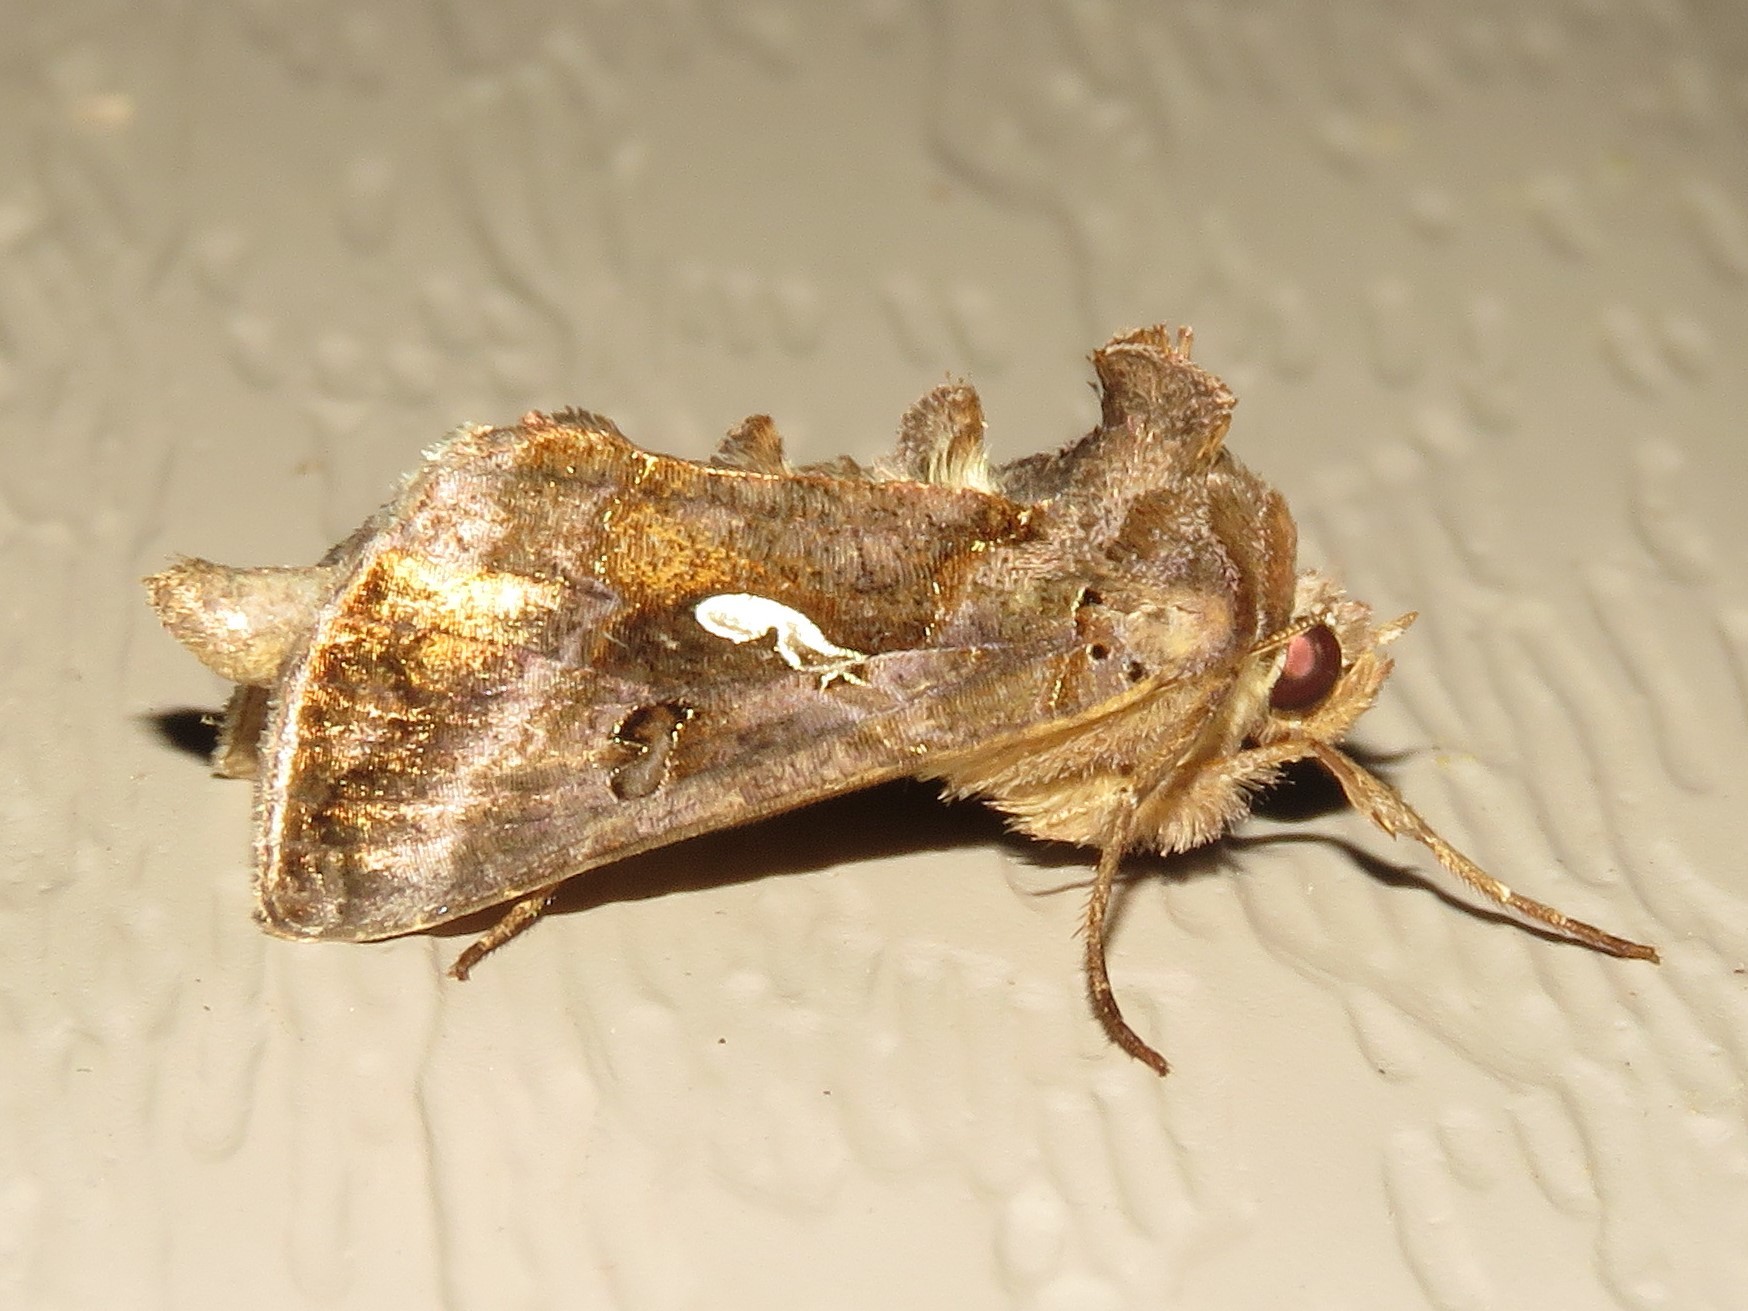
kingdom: Animalia
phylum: Arthropoda
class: Insecta
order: Lepidoptera
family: Noctuidae
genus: Autographa
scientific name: Autographa precationis
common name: Common looper moth
